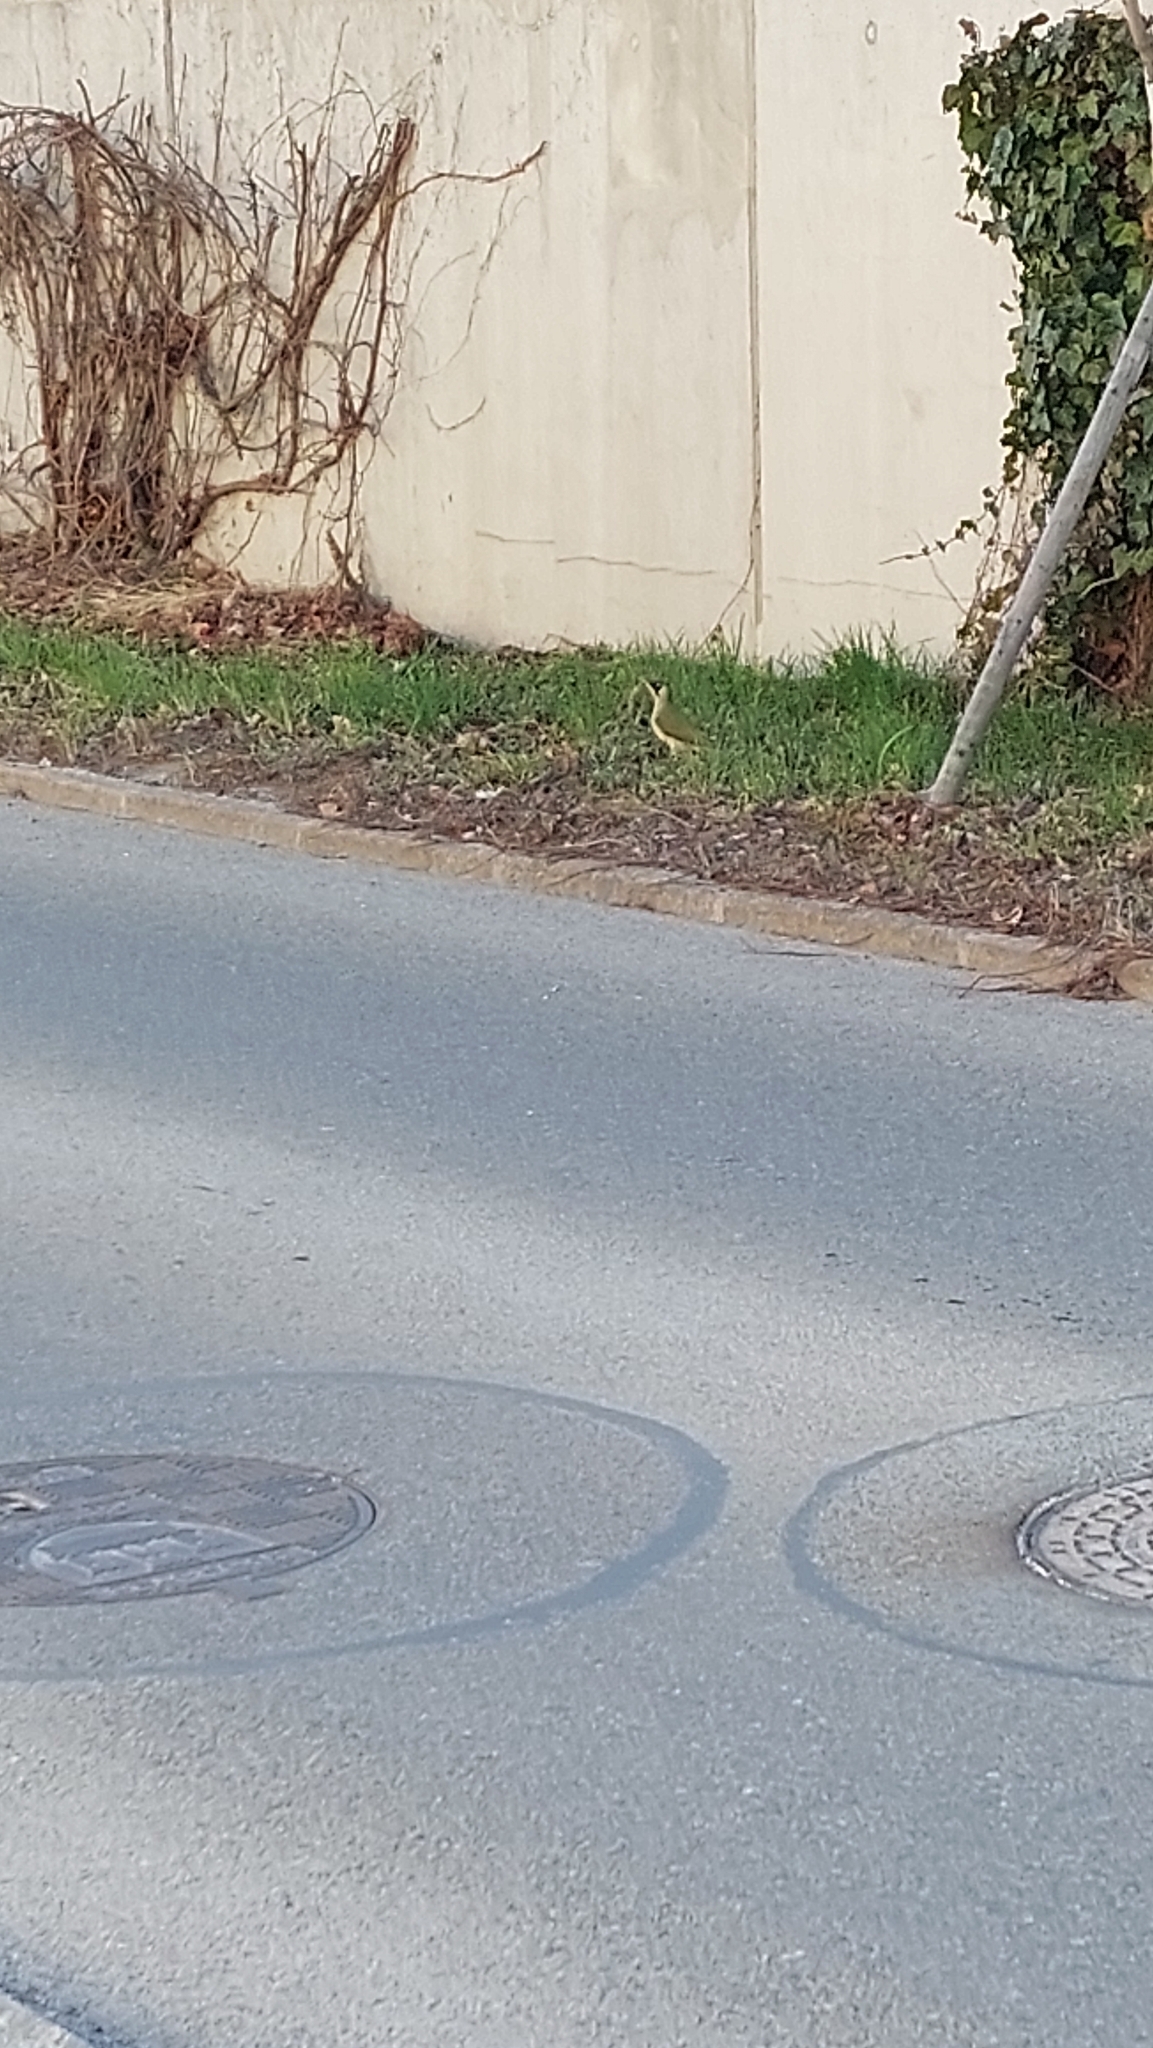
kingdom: Animalia
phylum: Chordata
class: Aves
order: Piciformes
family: Picidae
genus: Picus
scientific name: Picus viridis
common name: European green woodpecker
